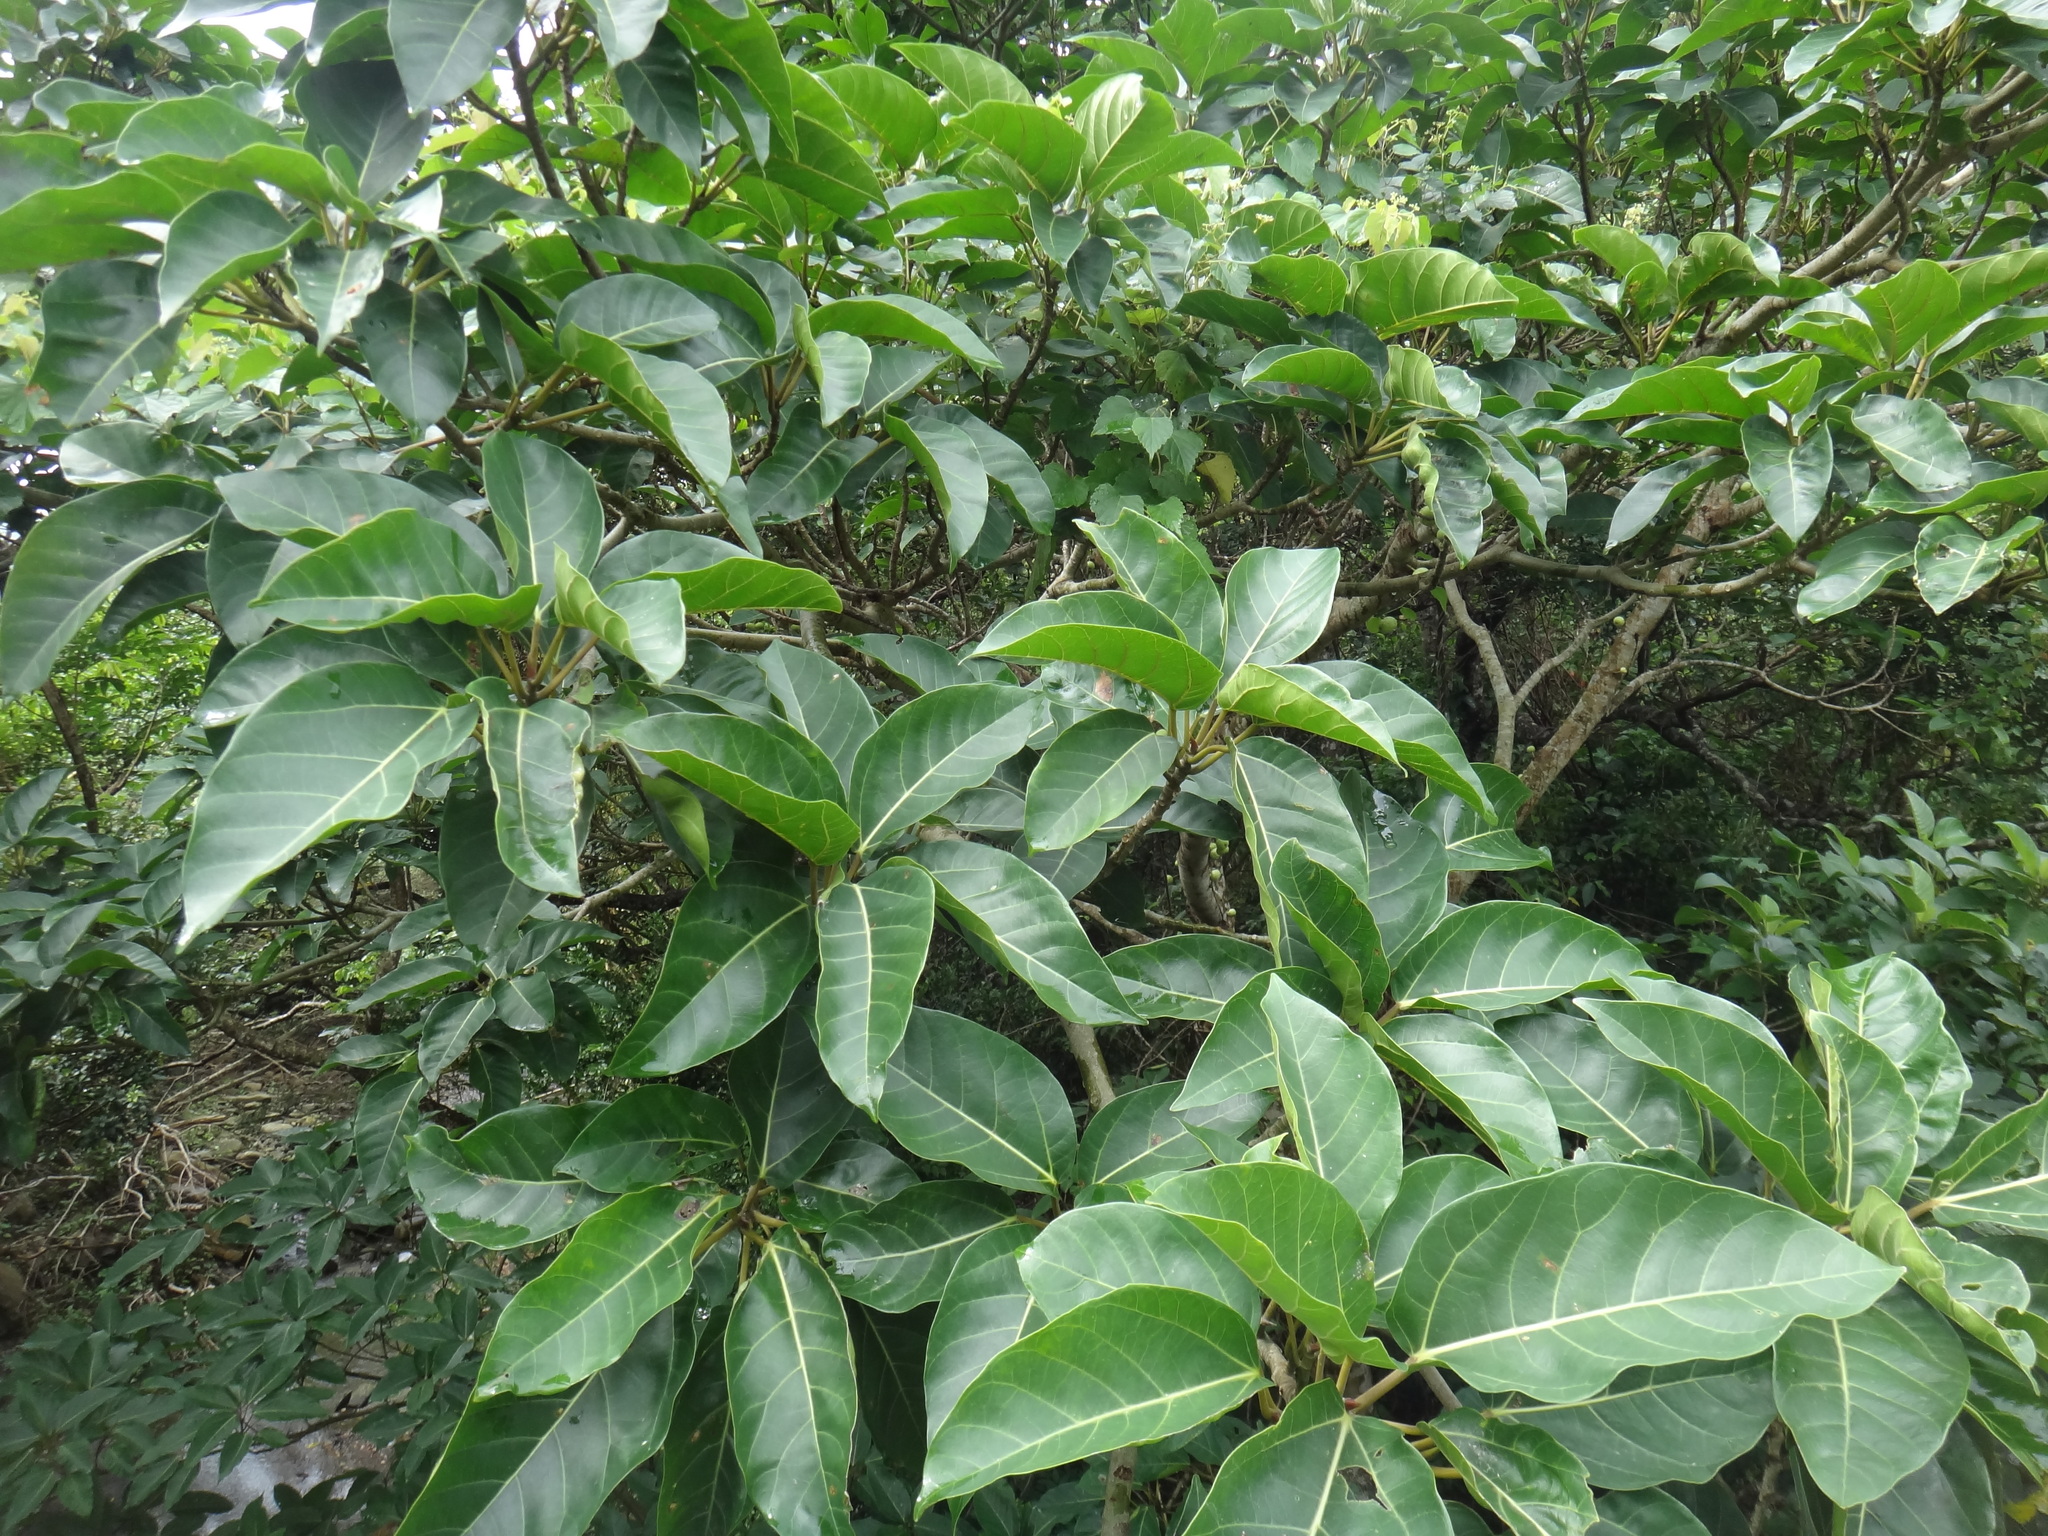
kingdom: Plantae
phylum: Tracheophyta
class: Magnoliopsida
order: Rosales
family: Moraceae
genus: Ficus
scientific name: Ficus variegata
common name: Variegated fig
